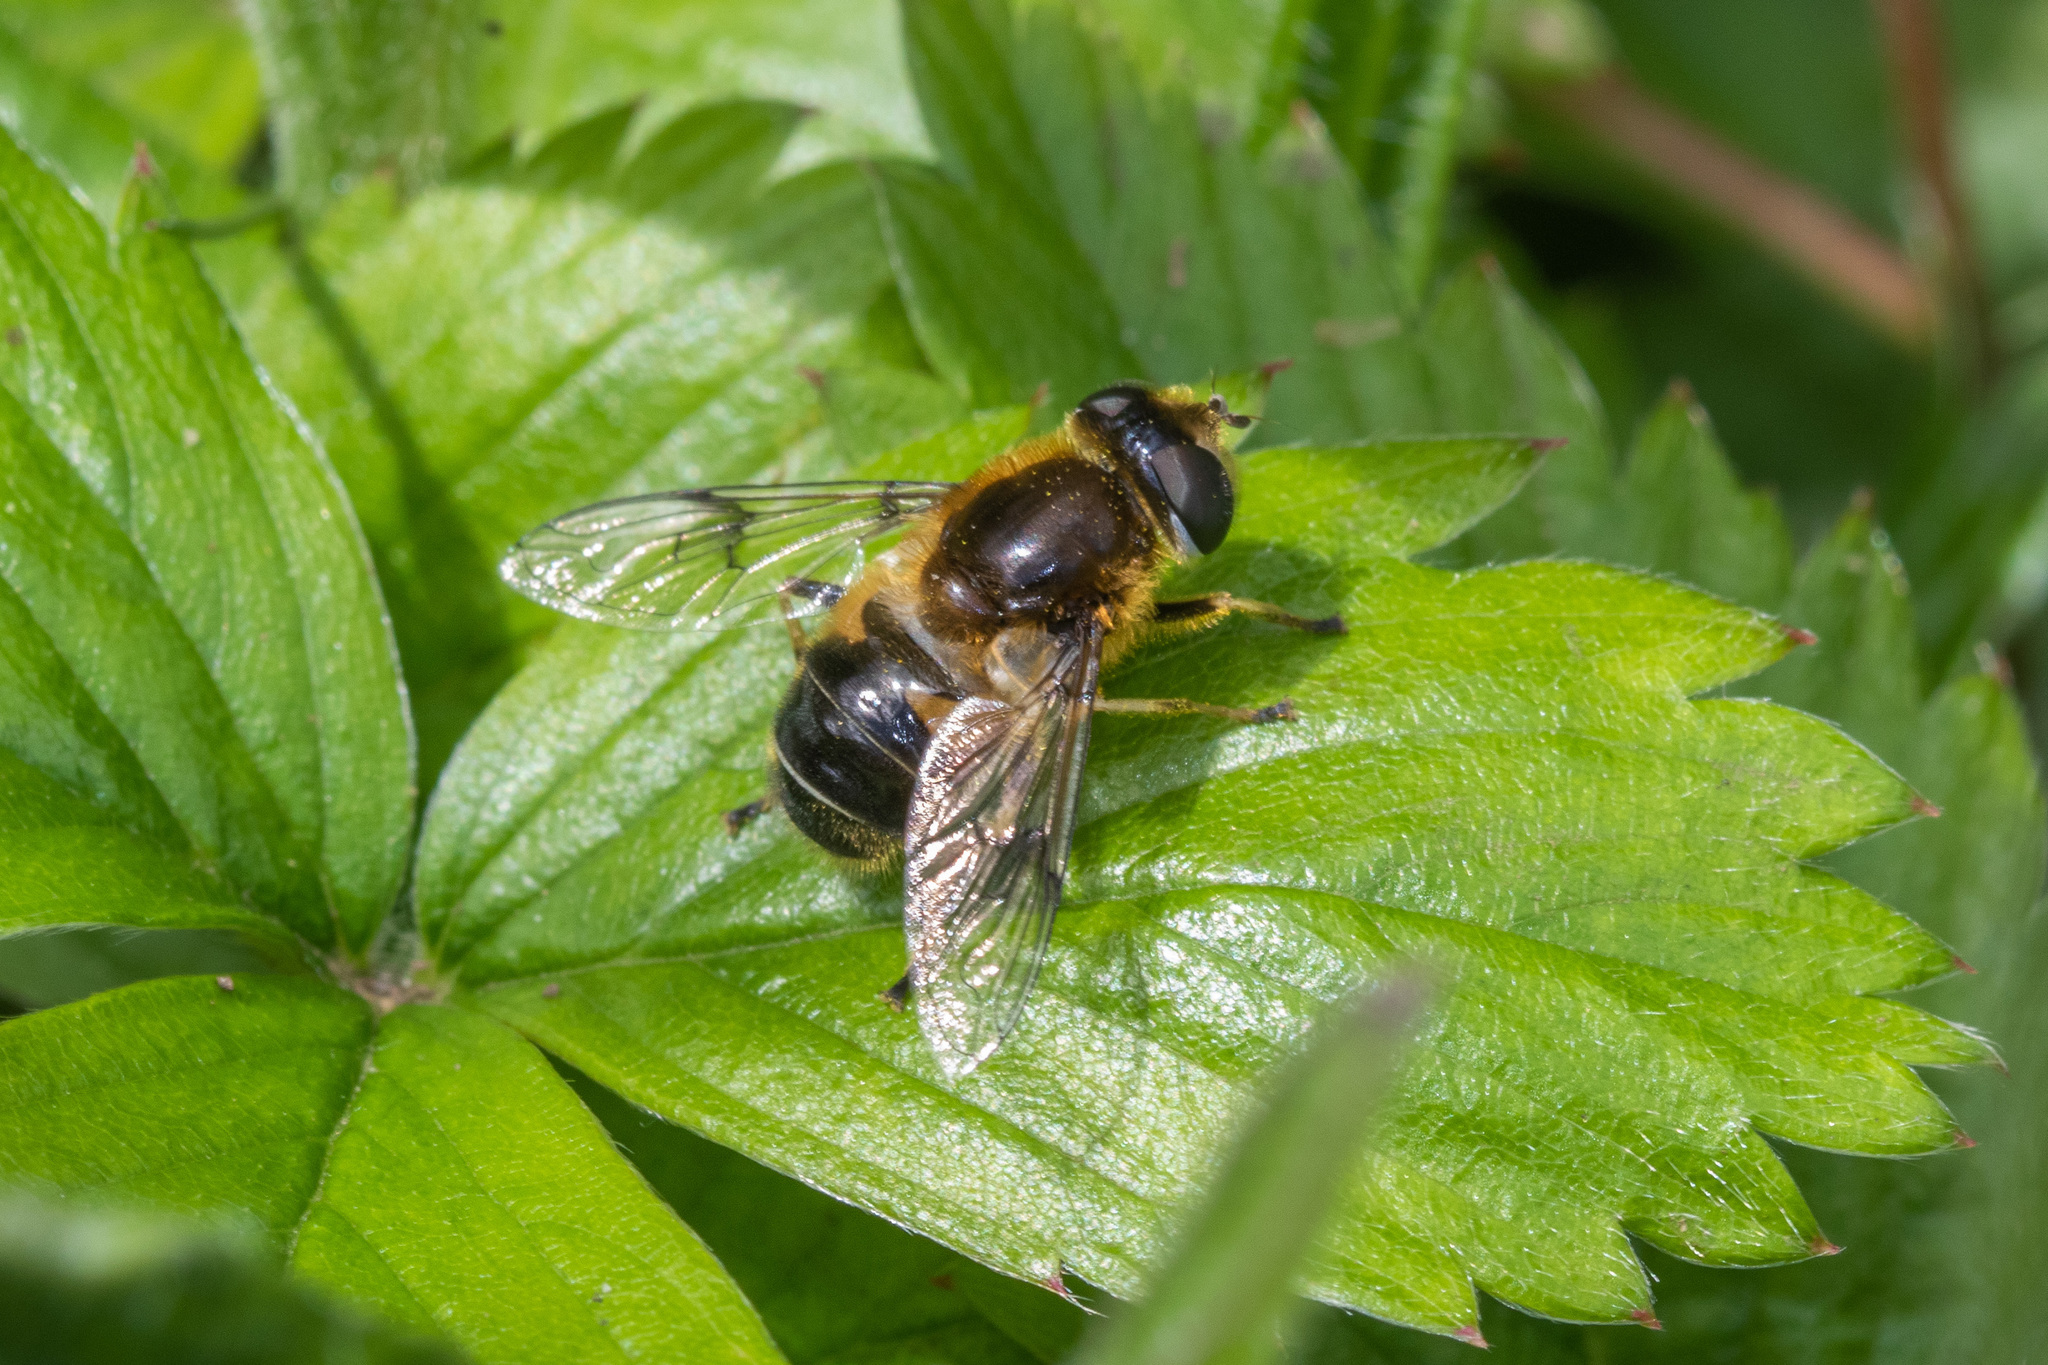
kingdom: Animalia
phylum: Arthropoda
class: Insecta
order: Diptera
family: Syrphidae
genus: Eristalis
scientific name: Eristalis rupium
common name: Hover fly
